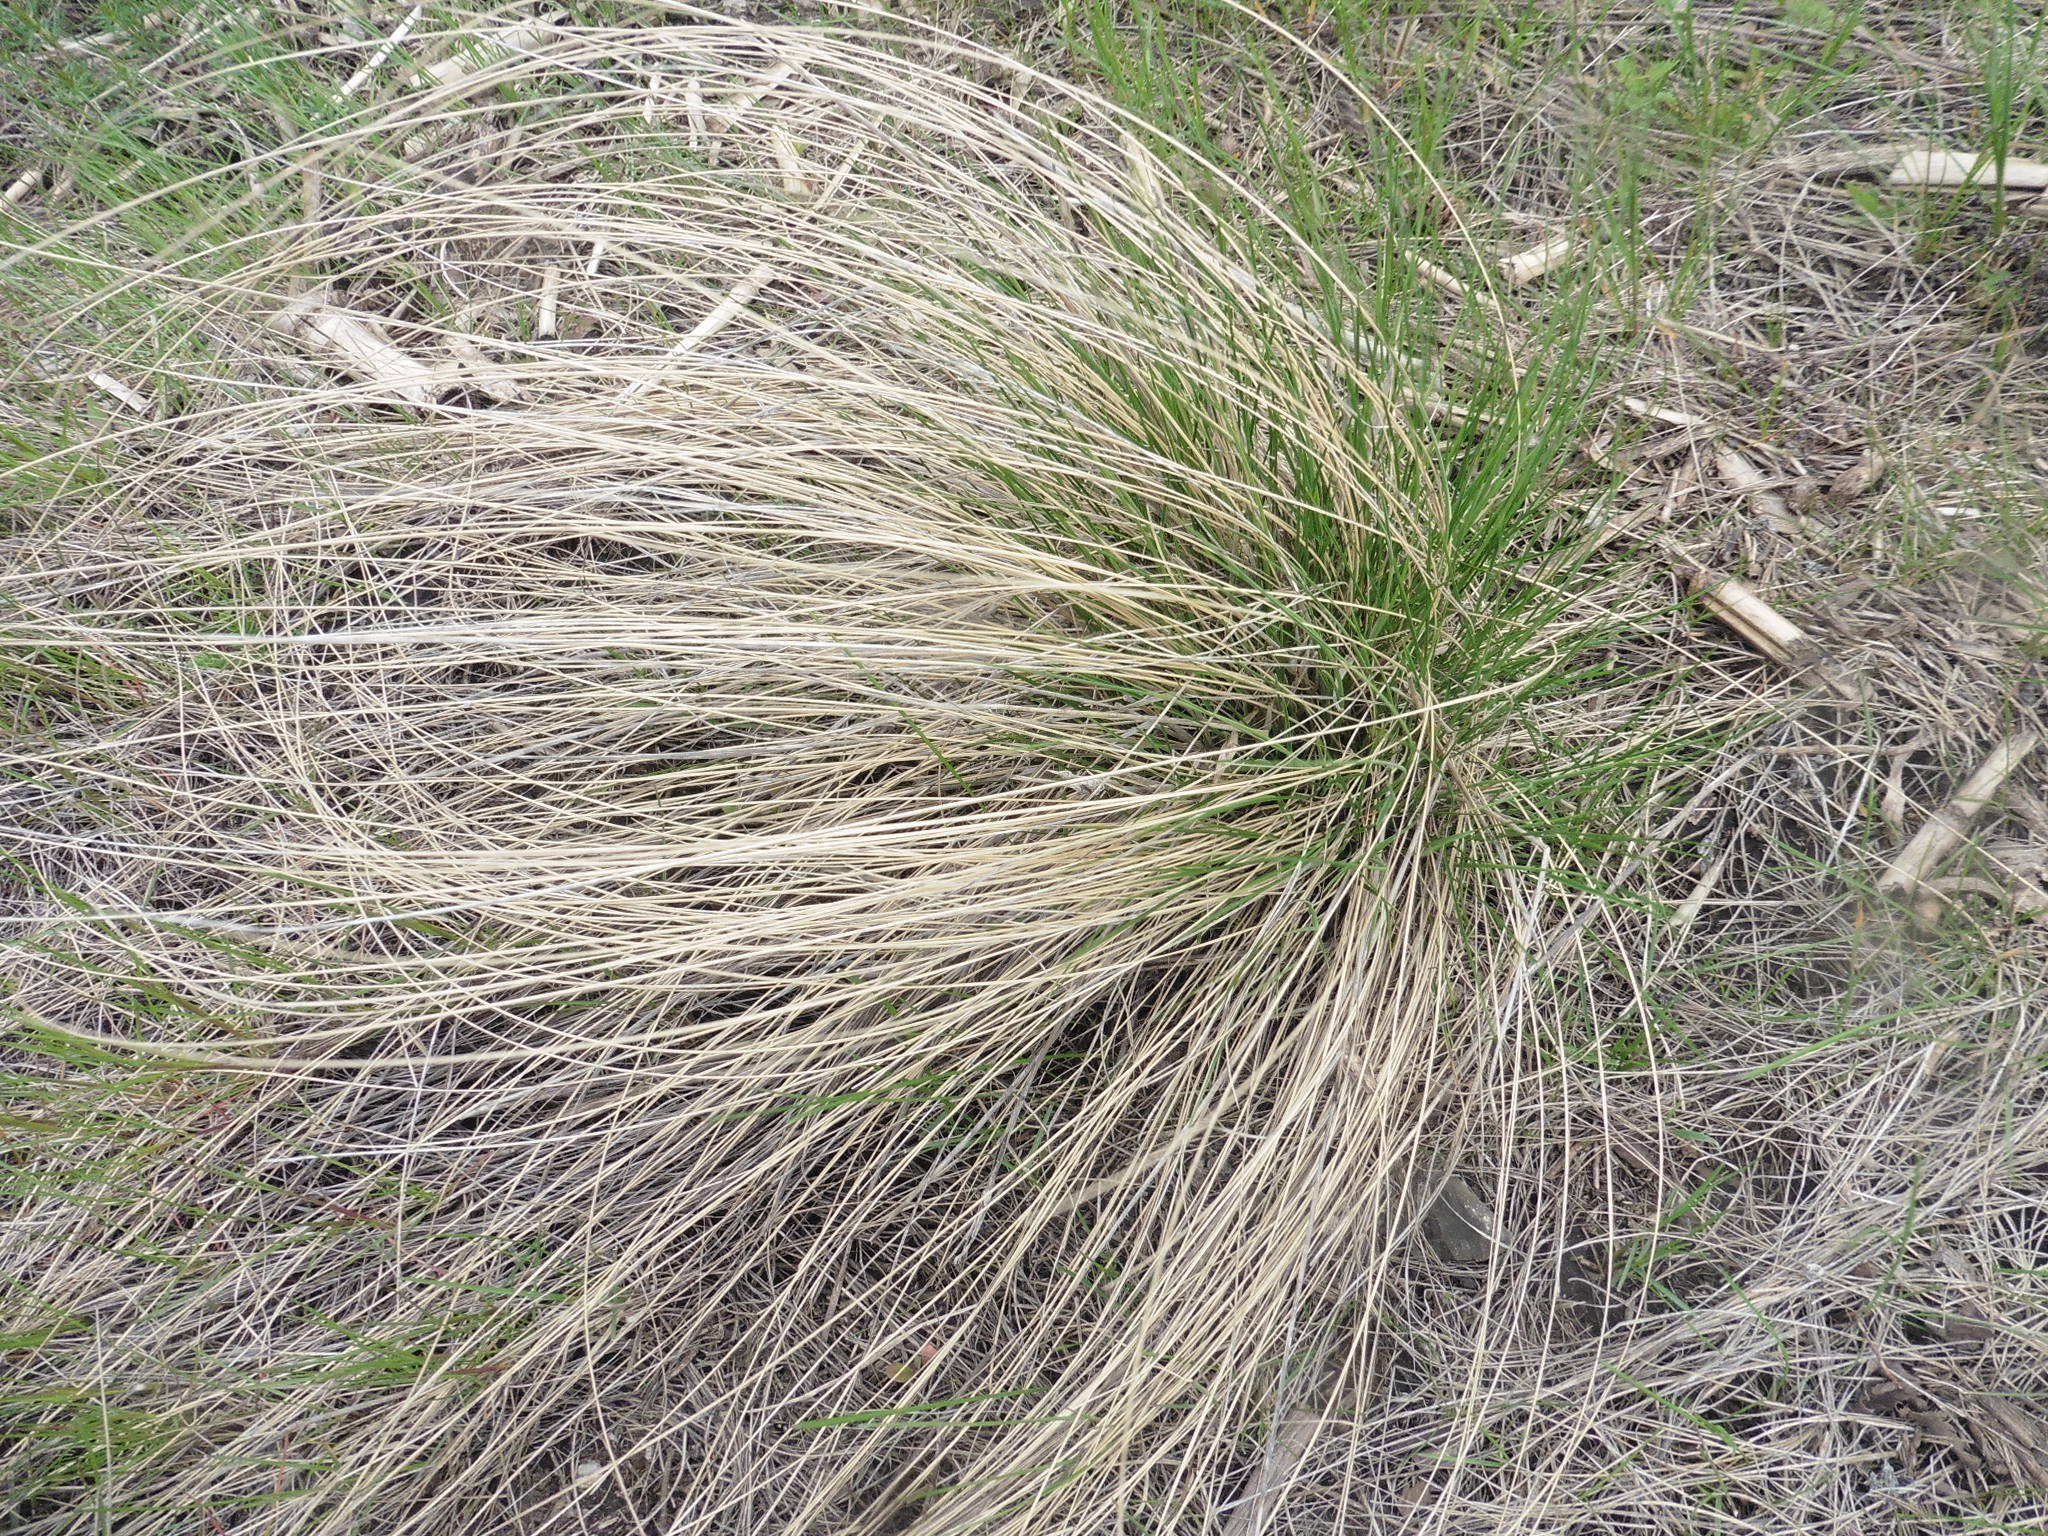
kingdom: Plantae
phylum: Tracheophyta
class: Liliopsida
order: Poales
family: Poaceae
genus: Stipa
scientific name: Stipa pennata
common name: European feather grass
